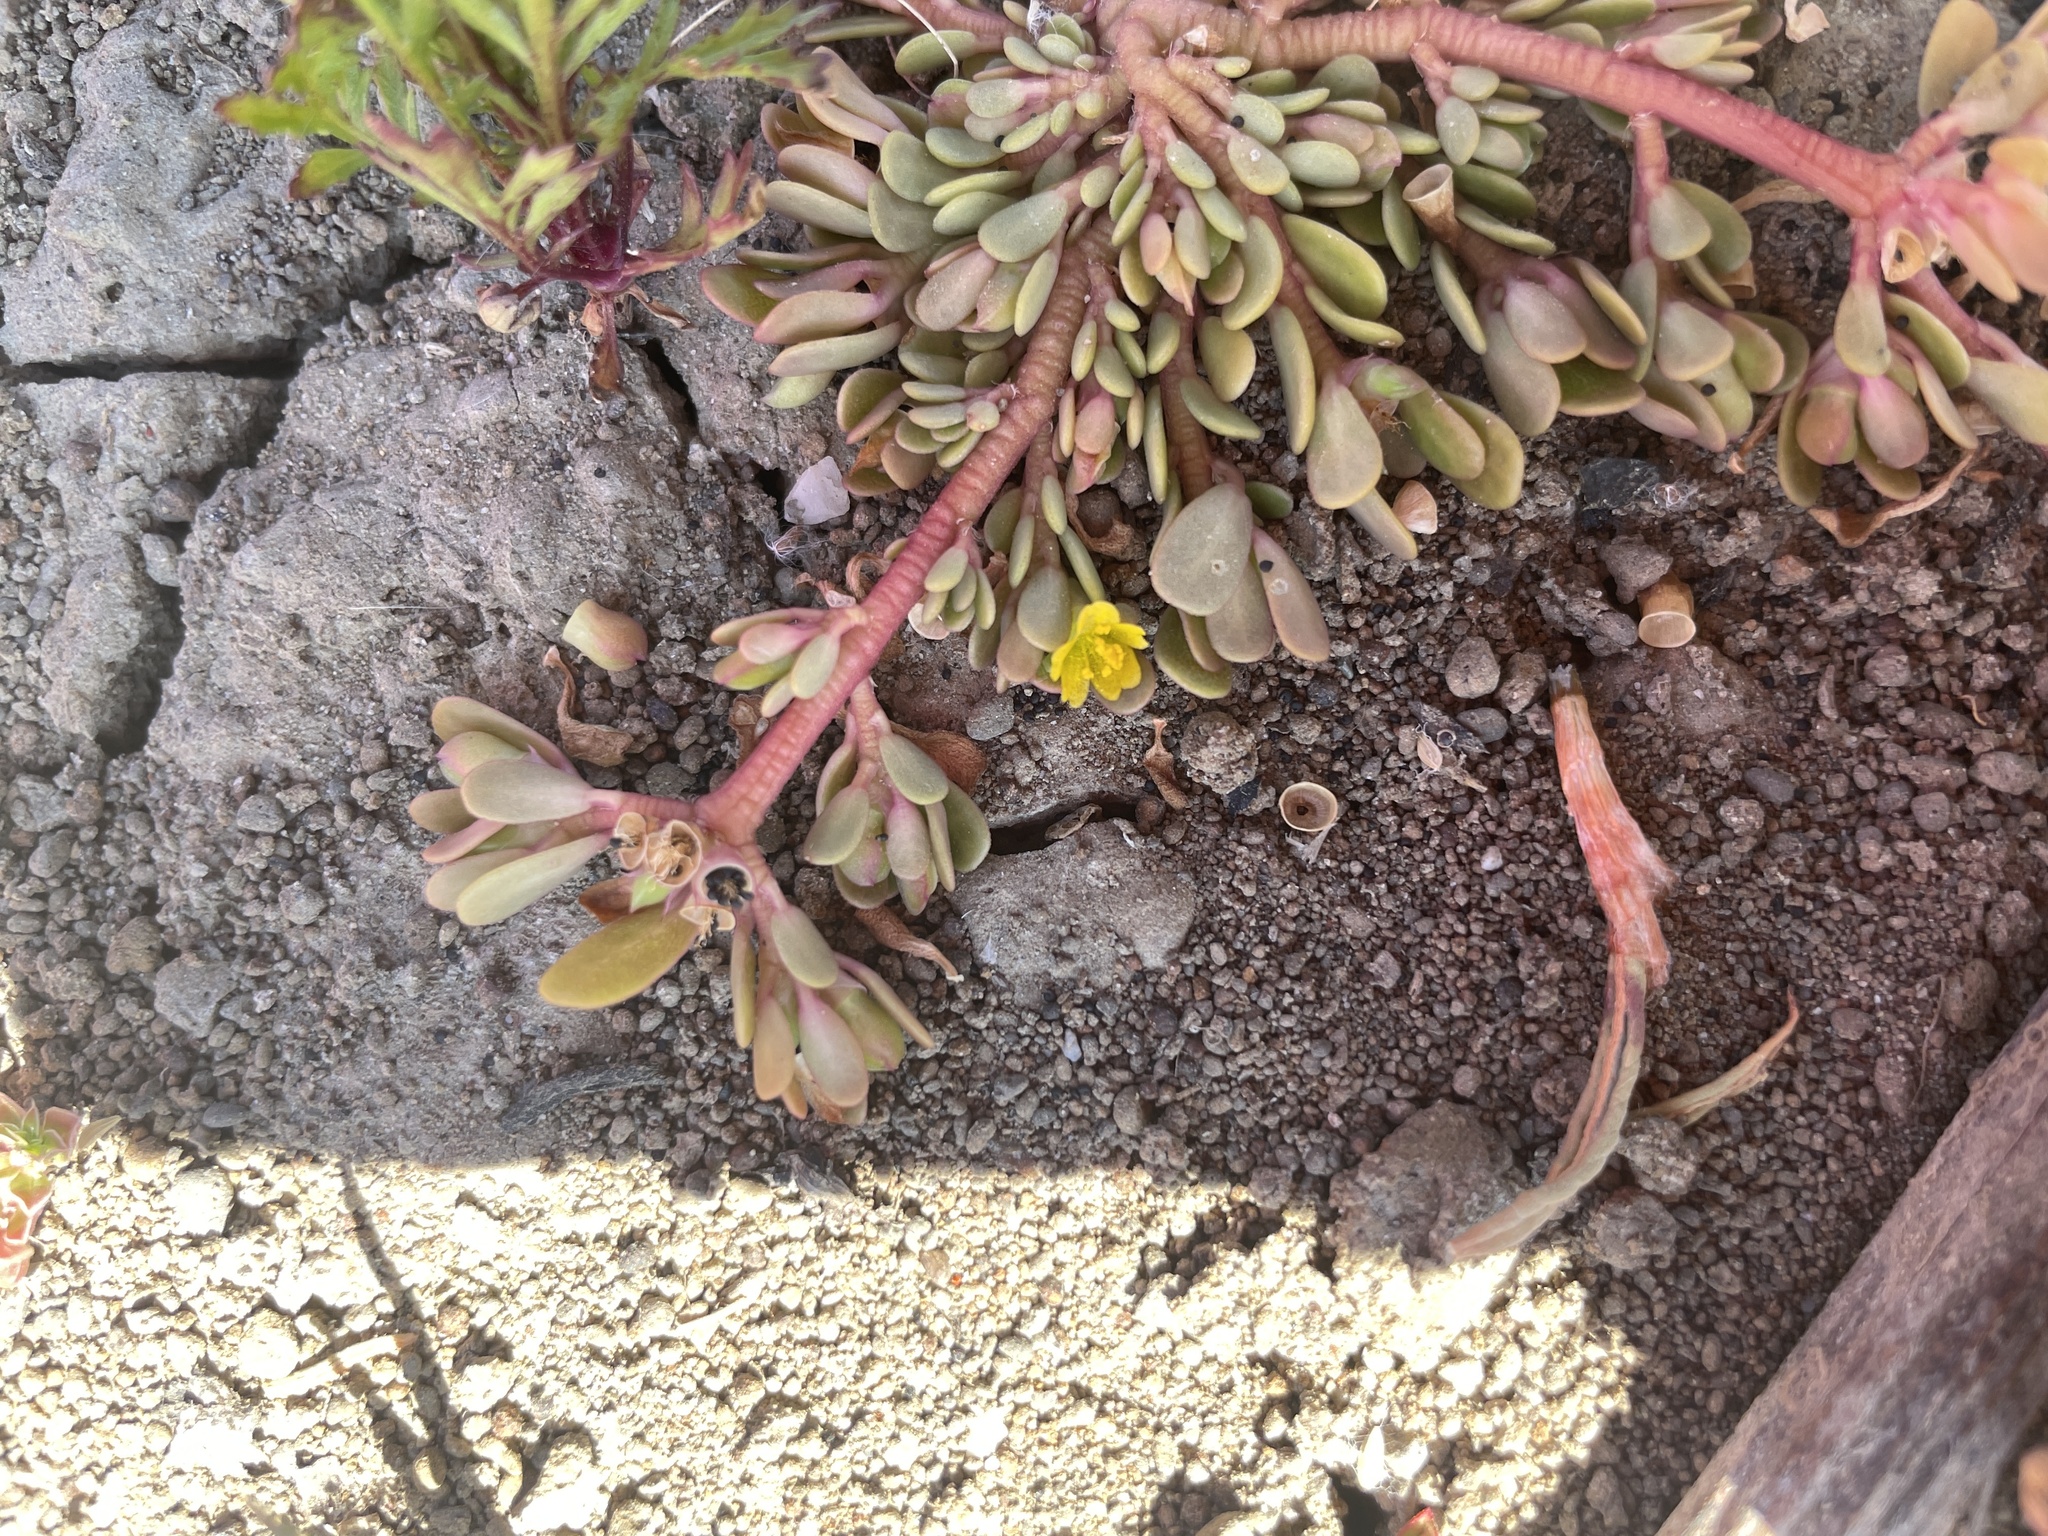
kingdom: Plantae
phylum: Tracheophyta
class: Magnoliopsida
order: Caryophyllales
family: Portulacaceae
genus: Portulaca
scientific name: Portulaca oleracea
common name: Common purslane
